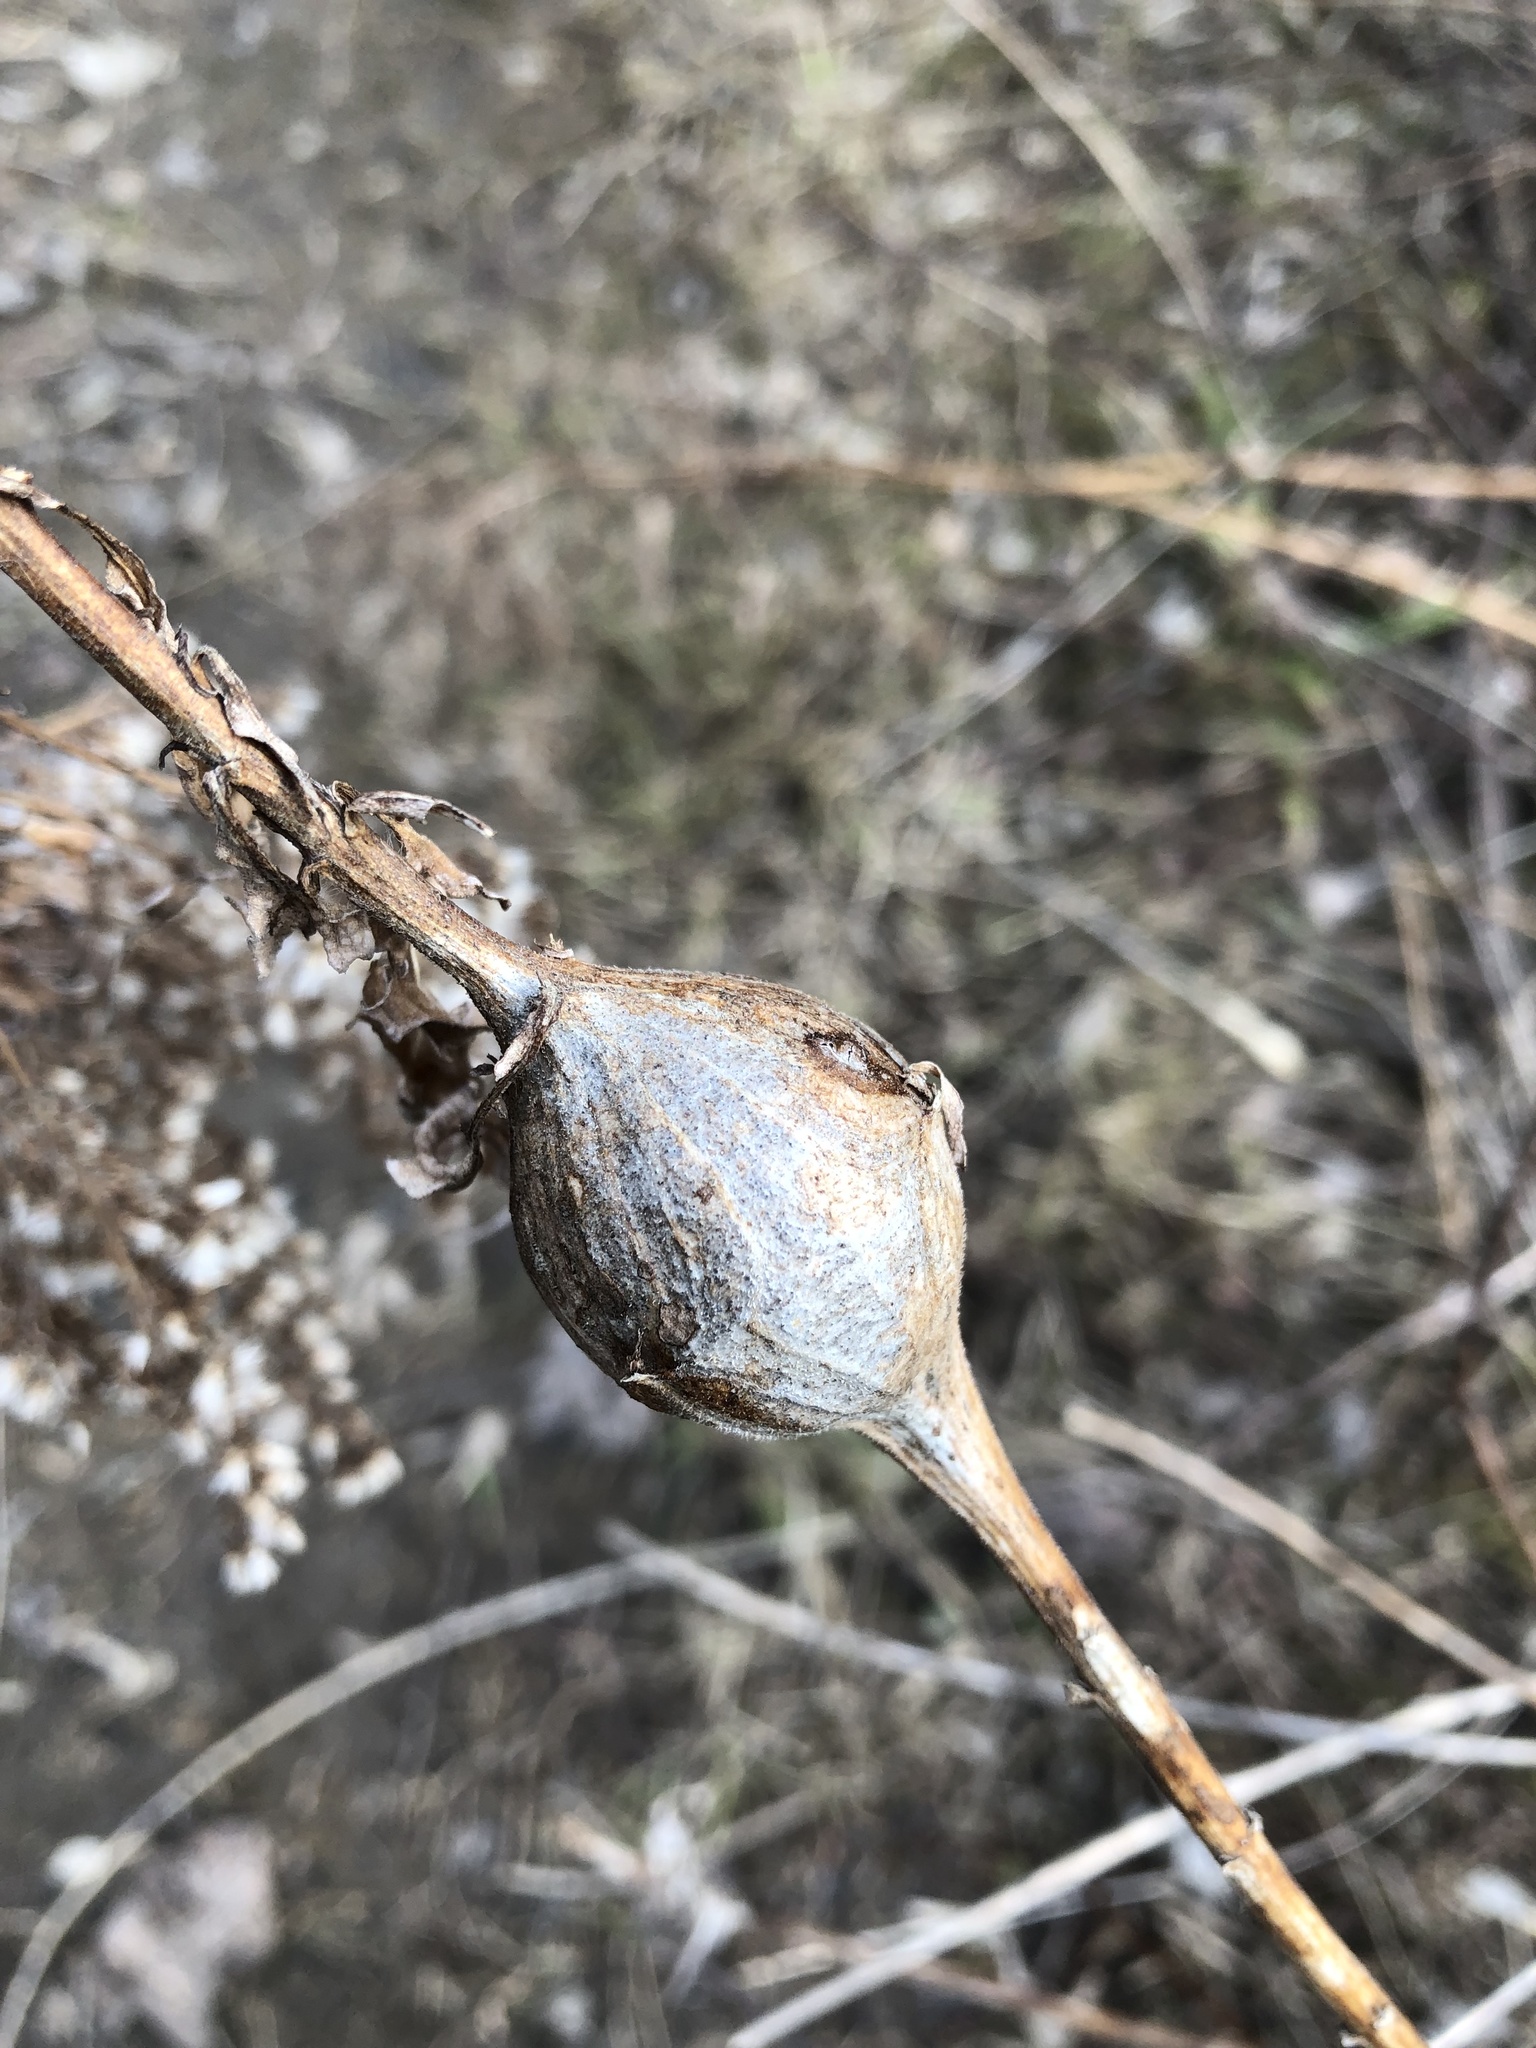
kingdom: Animalia
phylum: Arthropoda
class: Insecta
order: Diptera
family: Tephritidae
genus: Eurosta
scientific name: Eurosta solidaginis
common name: Goldenrod gall fly
